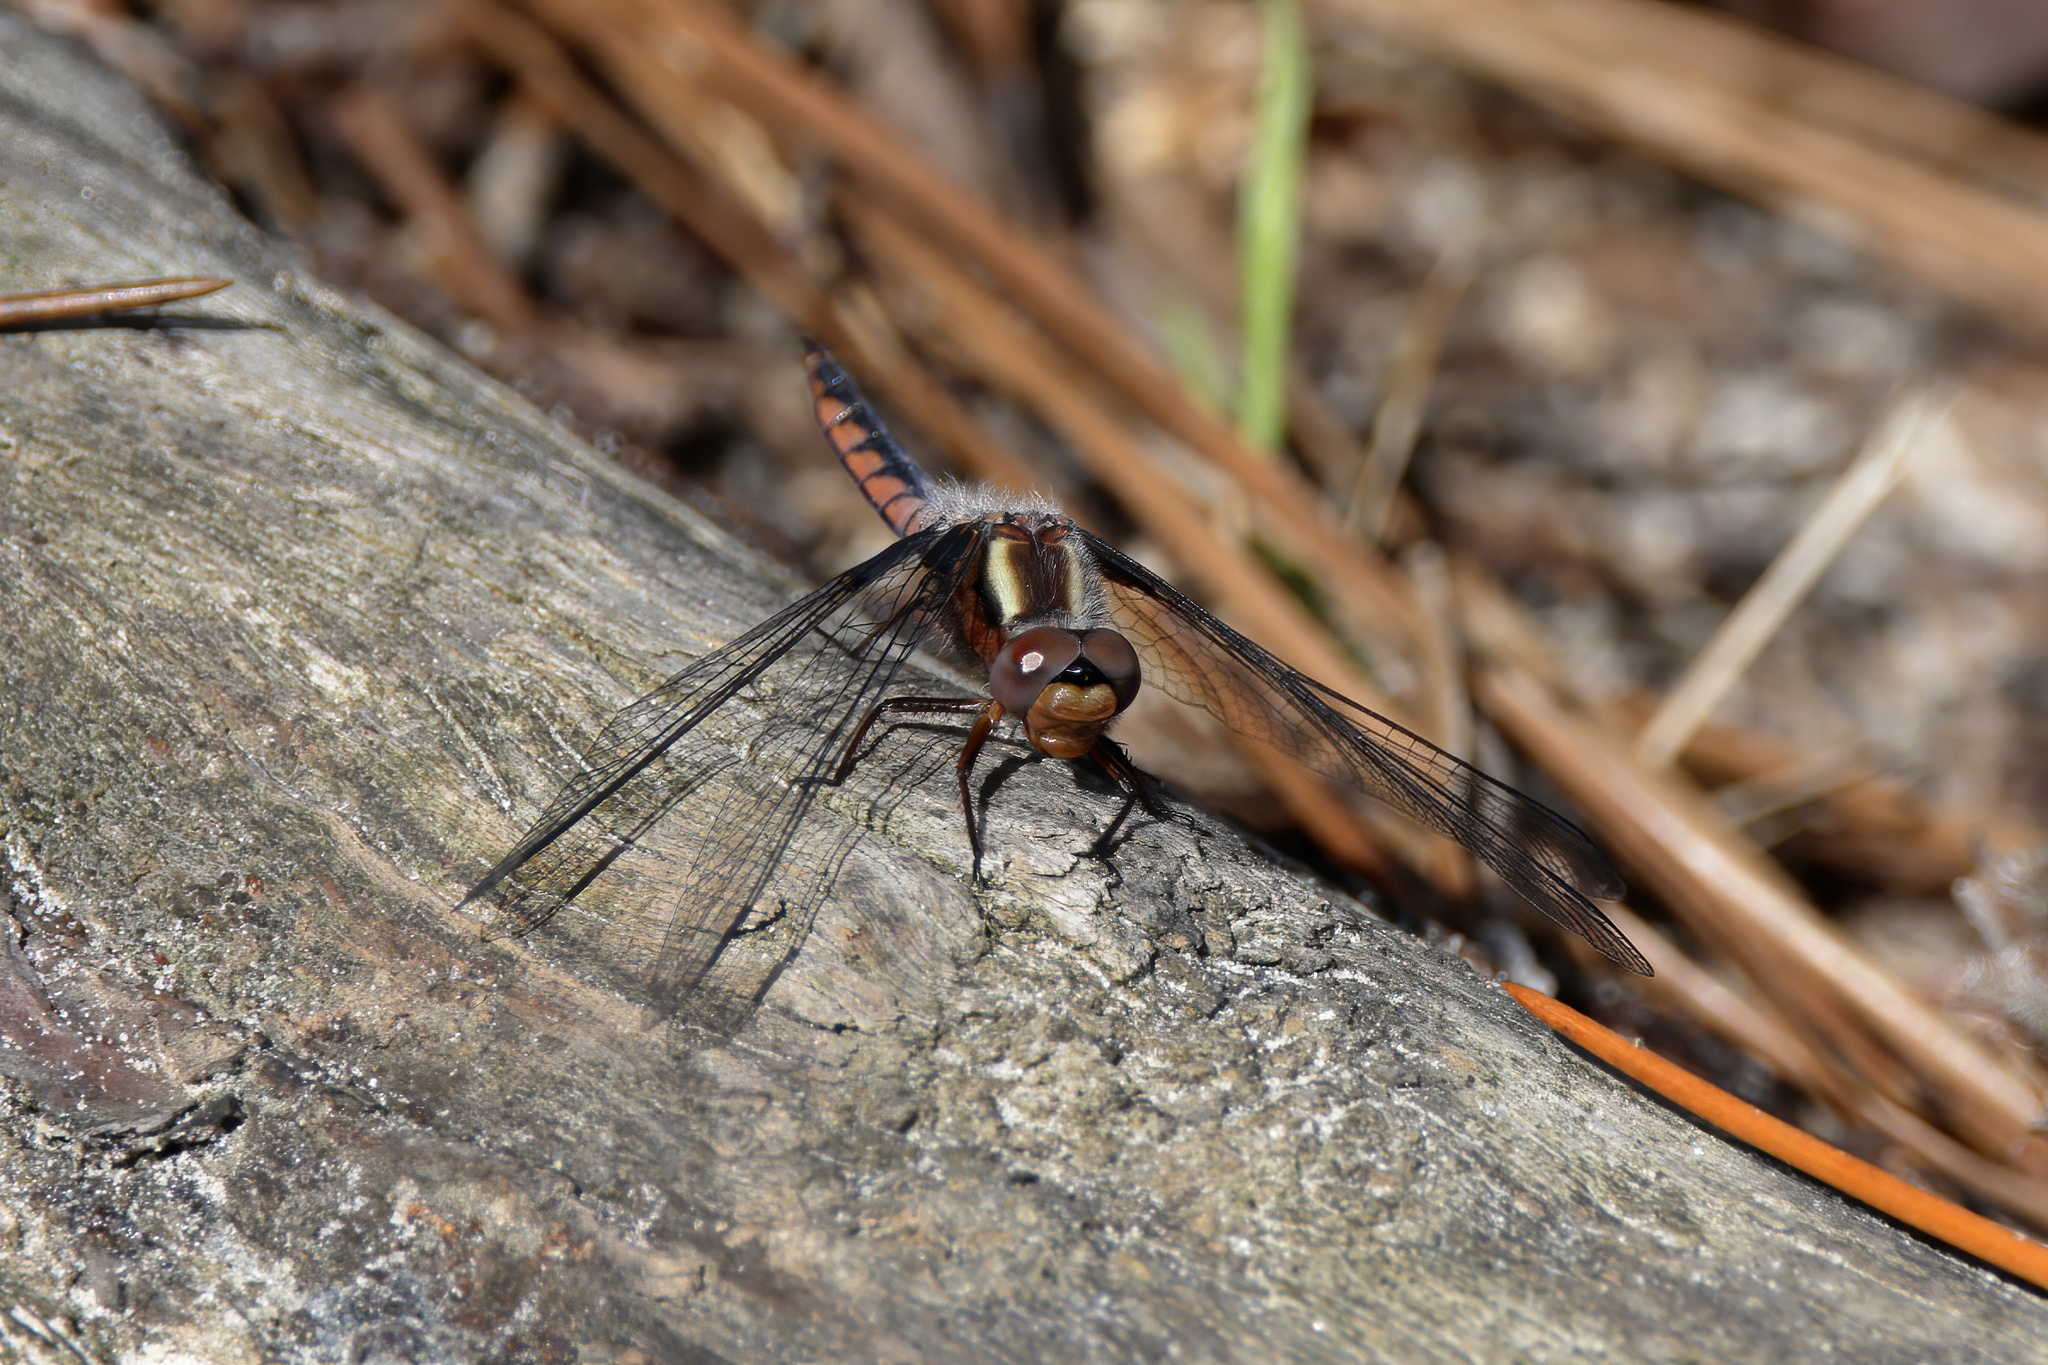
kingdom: Animalia
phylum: Arthropoda
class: Insecta
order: Odonata
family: Libellulidae
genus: Ladona
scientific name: Ladona deplanata
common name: Blue corporal
